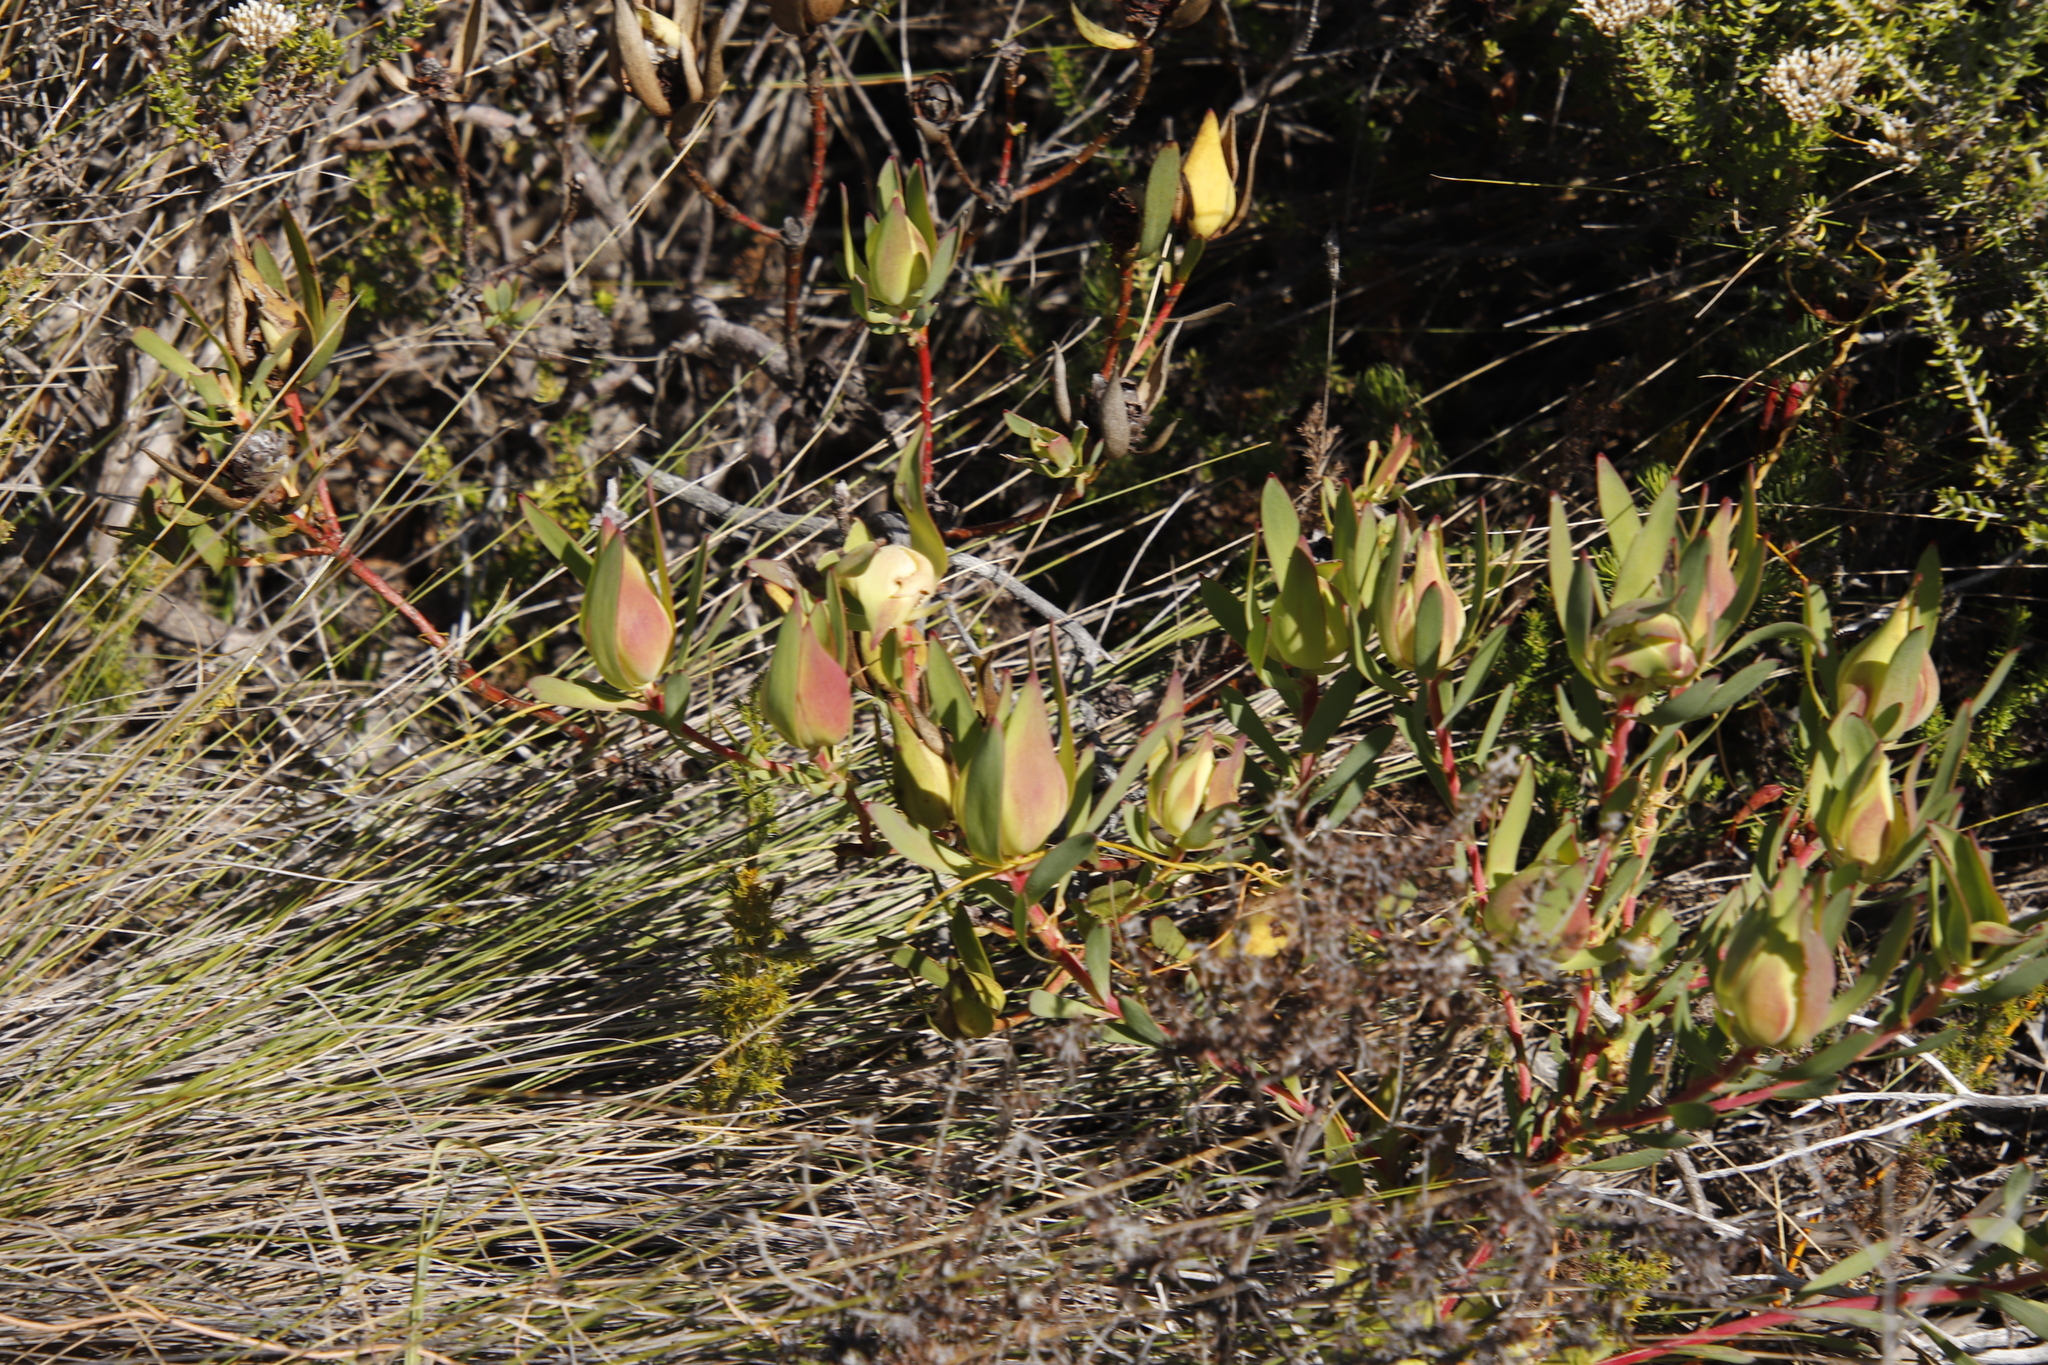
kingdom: Plantae
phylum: Tracheophyta
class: Magnoliopsida
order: Proteales
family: Proteaceae
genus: Leucadendron
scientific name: Leucadendron salignum
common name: Common sunshine conebush
